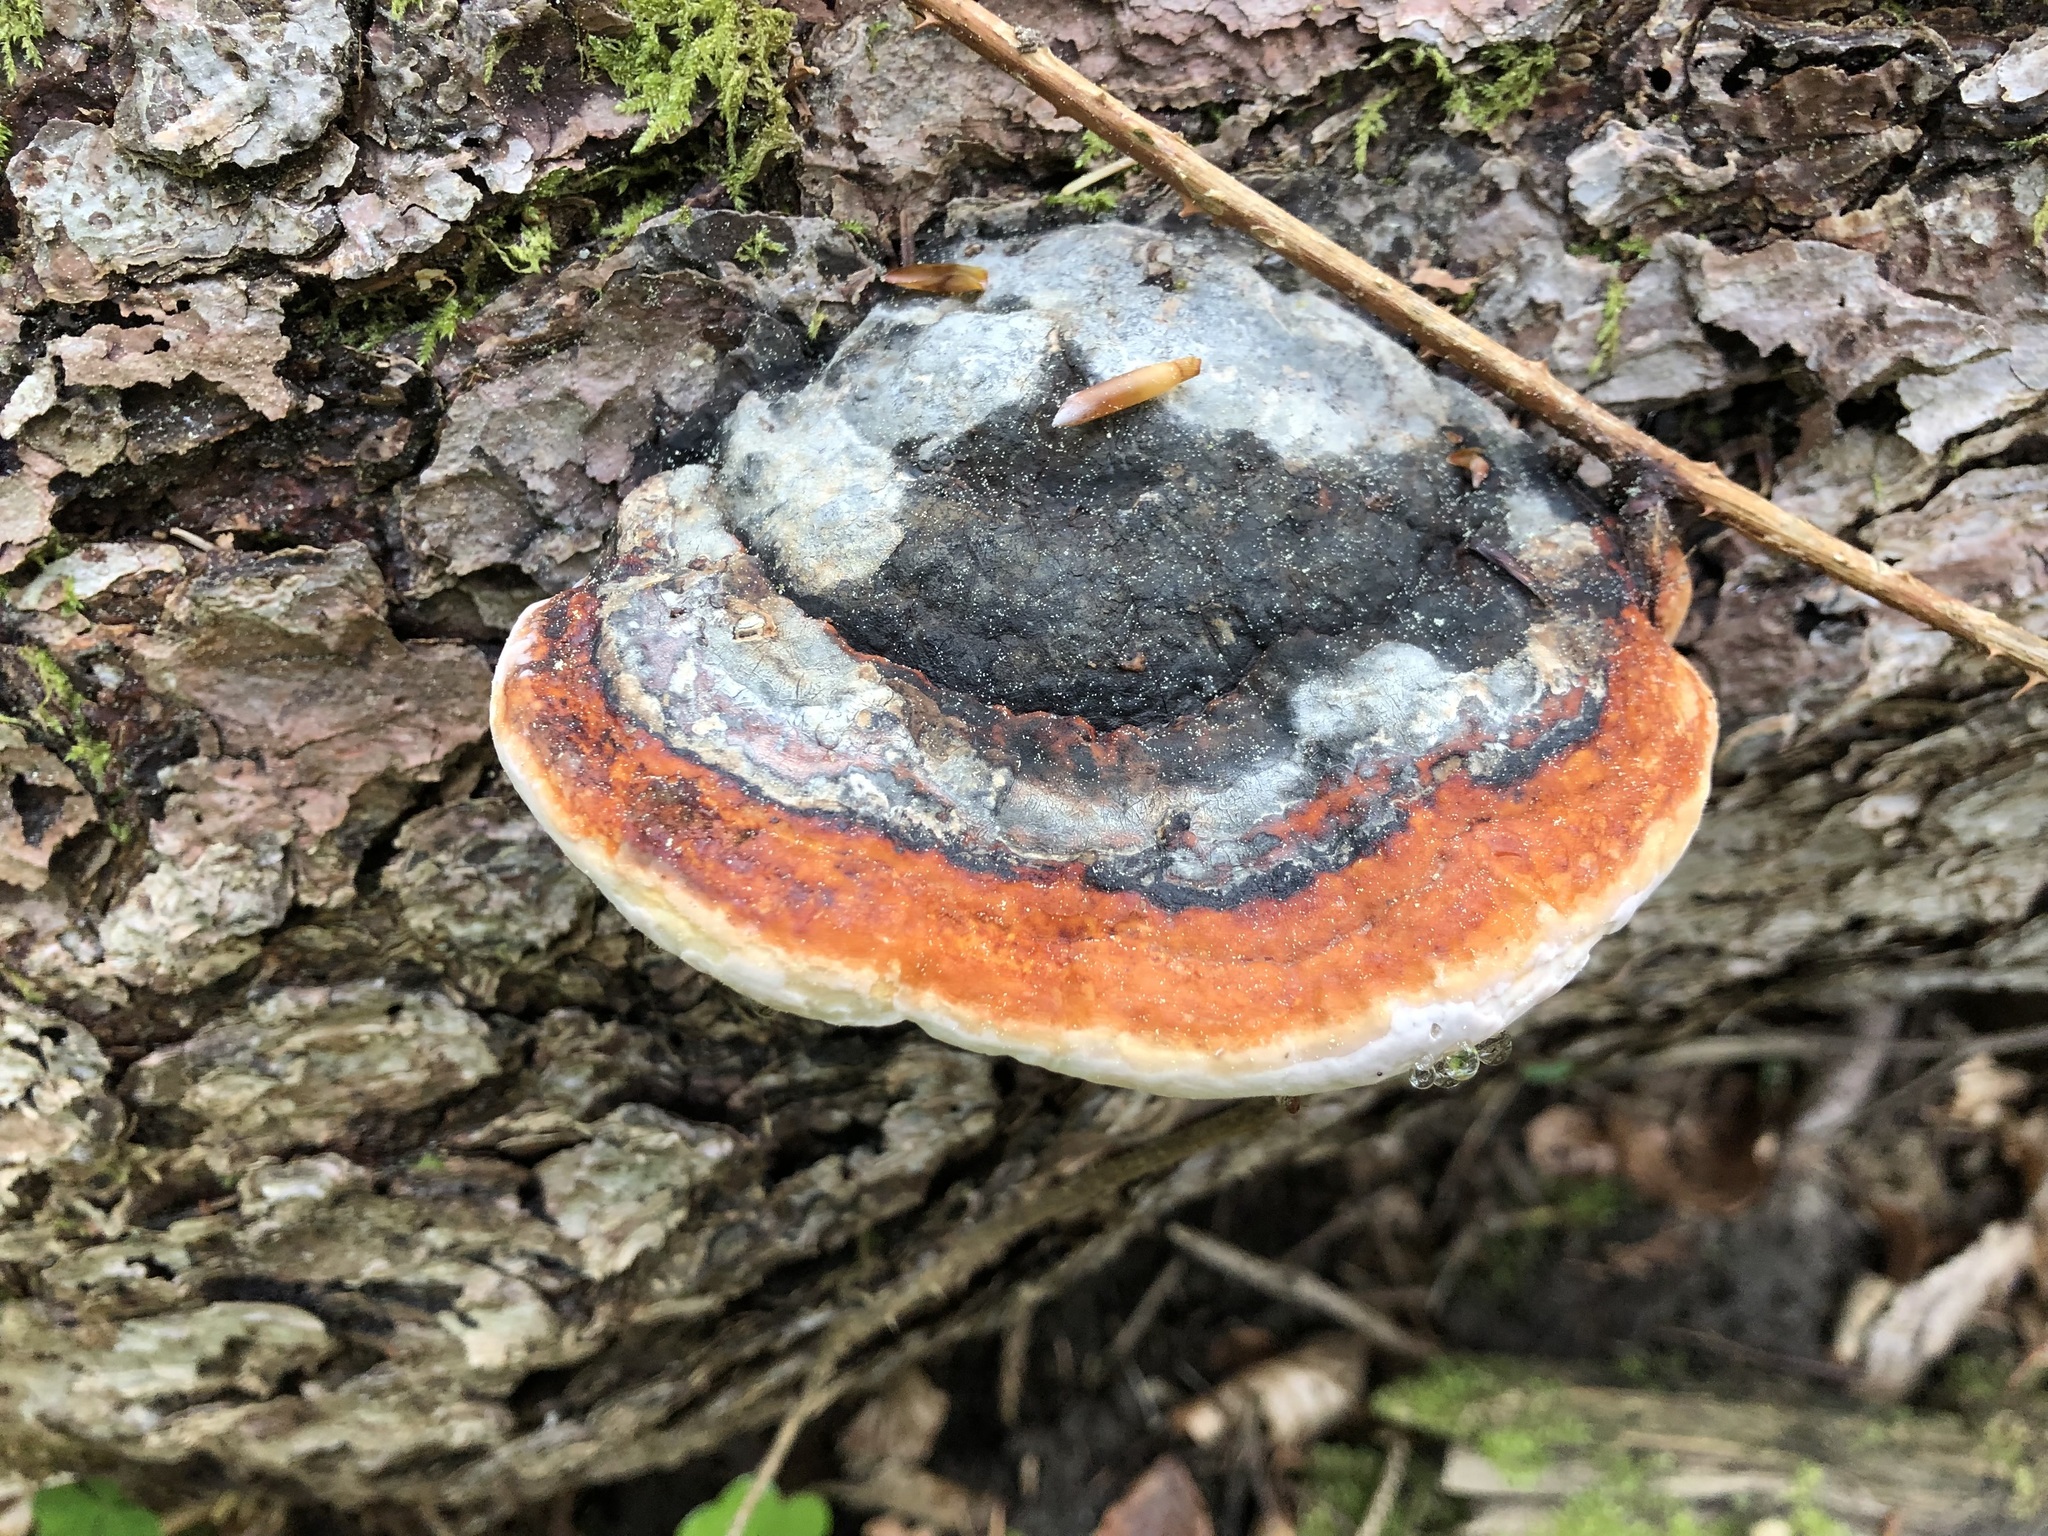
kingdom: Fungi
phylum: Basidiomycota
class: Agaricomycetes
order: Polyporales
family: Fomitopsidaceae
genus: Fomitopsis
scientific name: Fomitopsis pinicola
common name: Red-belted bracket
